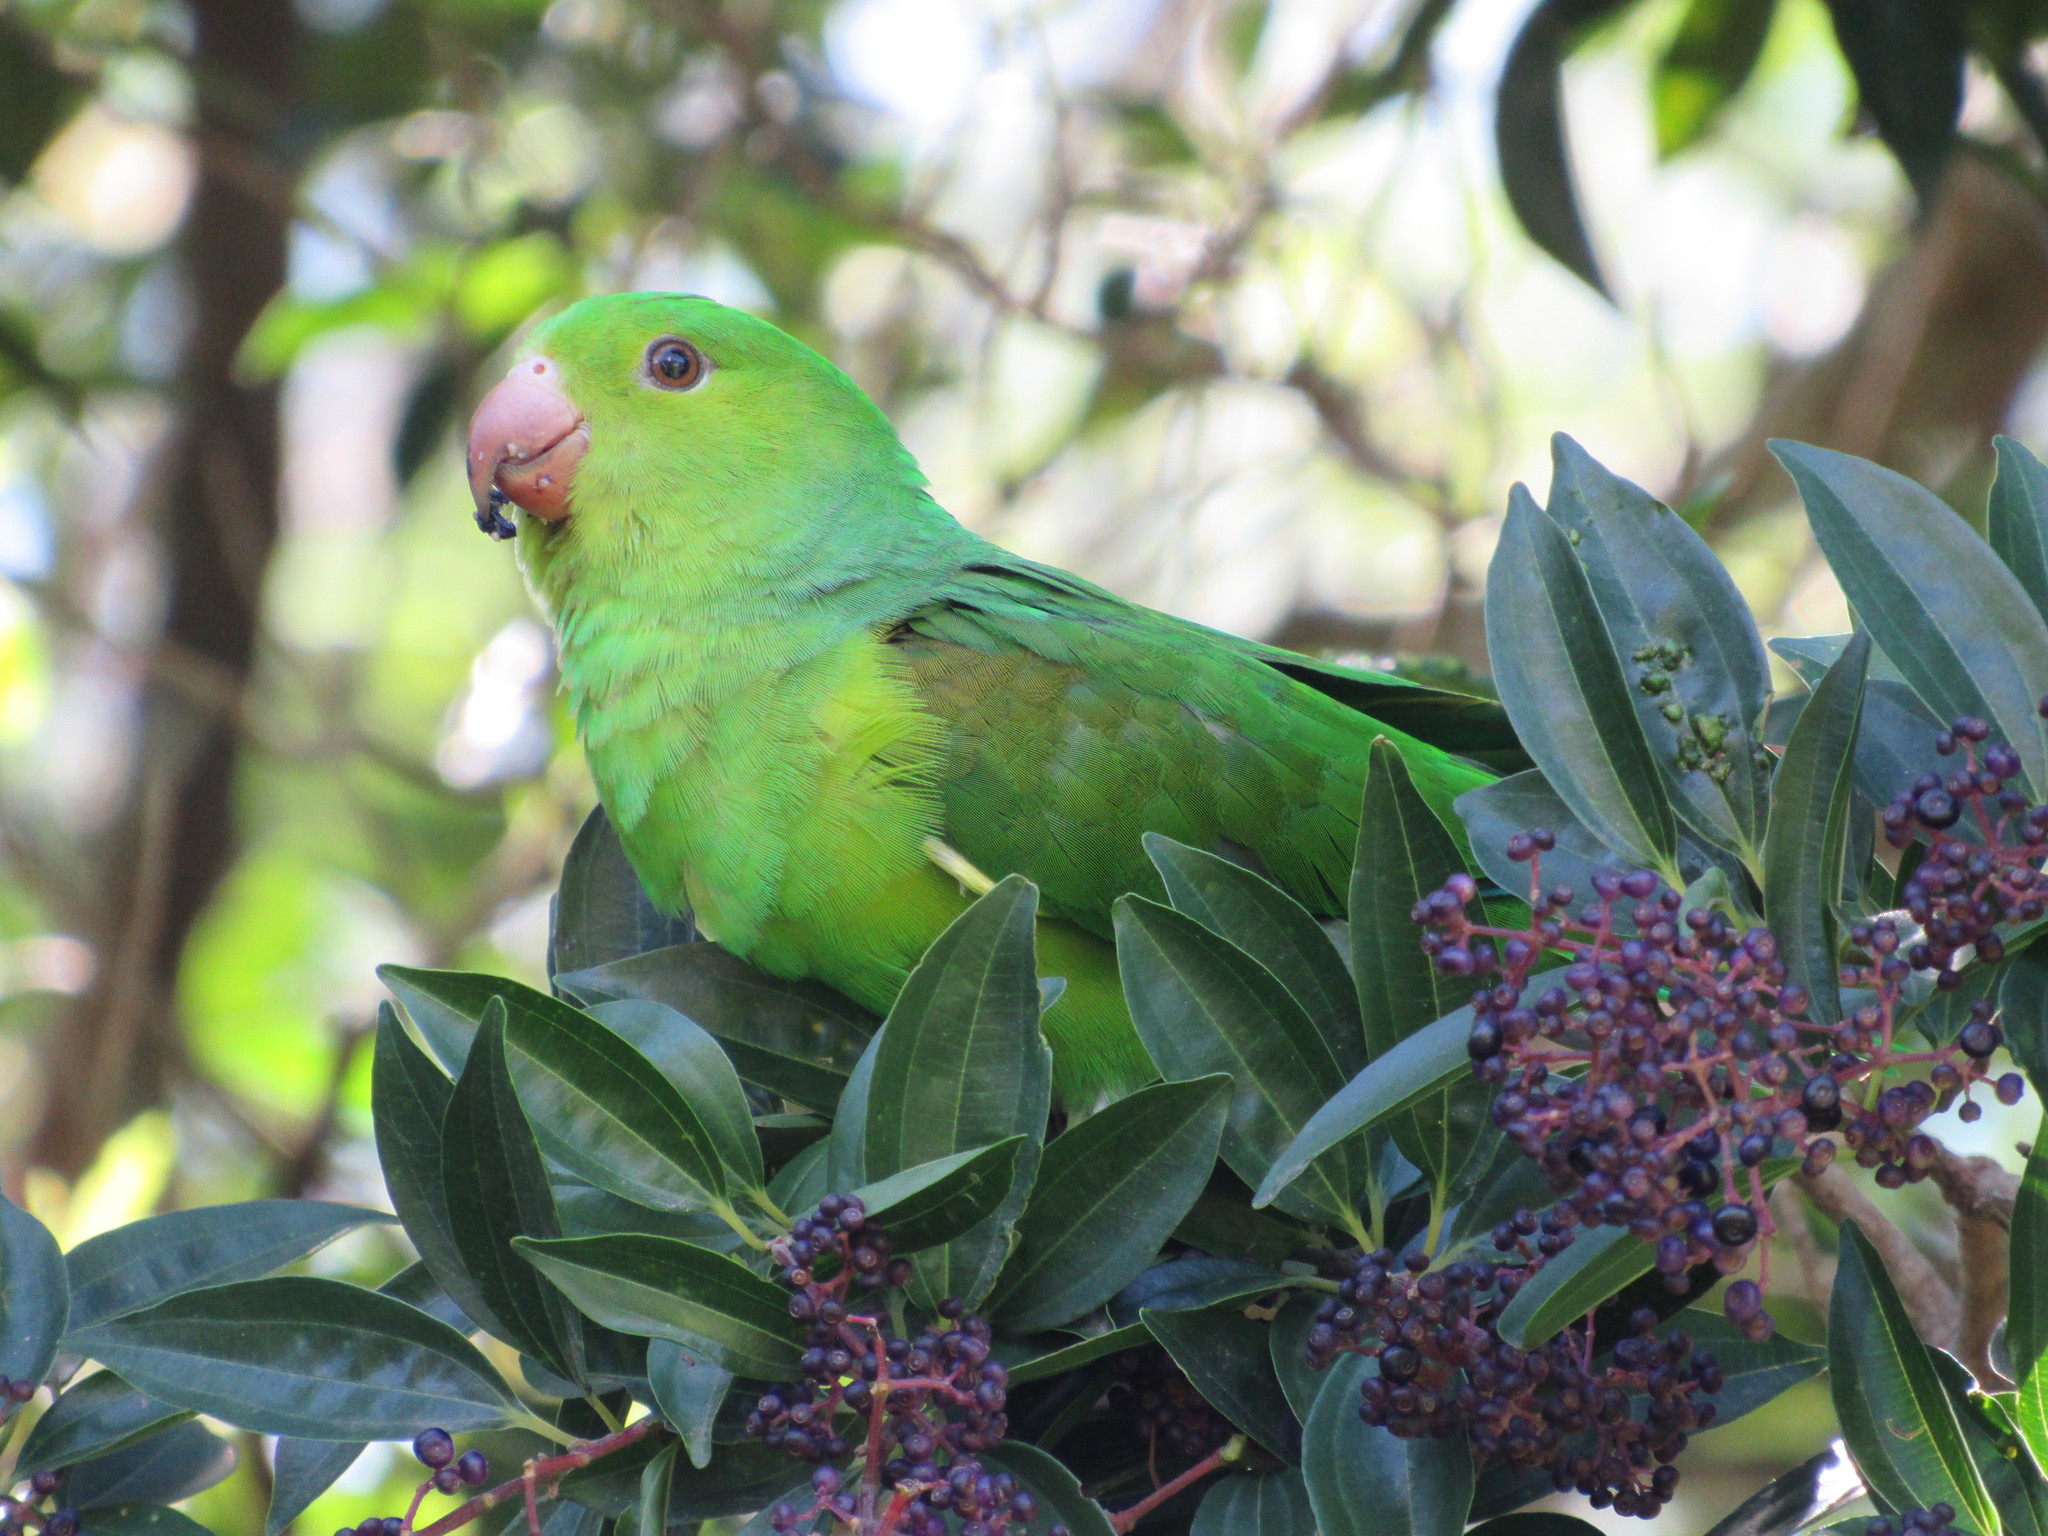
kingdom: Animalia
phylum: Chordata
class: Aves
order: Psittaciformes
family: Psittacidae
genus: Brotogeris
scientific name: Brotogeris tirica
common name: Plain parakeet
